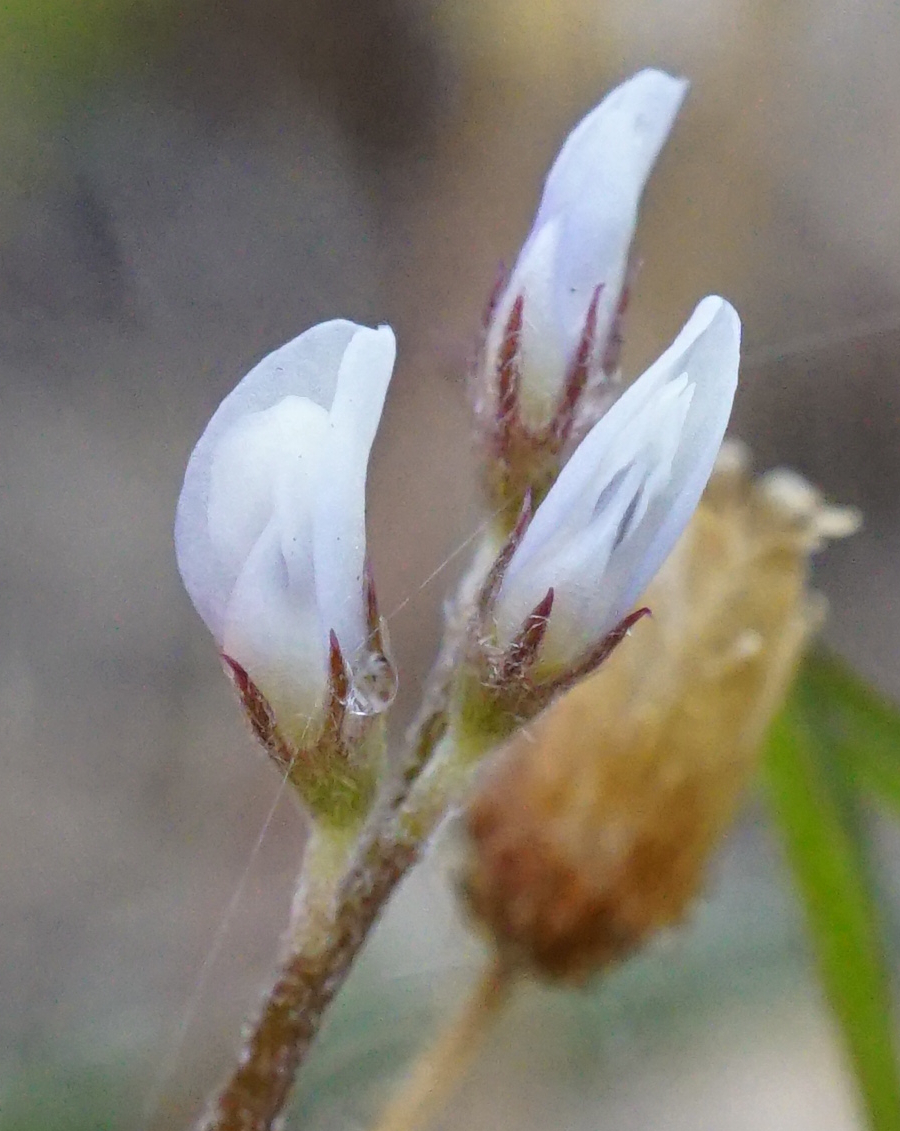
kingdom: Plantae
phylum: Tracheophyta
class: Magnoliopsida
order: Fabales
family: Fabaceae
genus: Vicia
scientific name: Vicia hirsuta
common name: Tiny vetch
